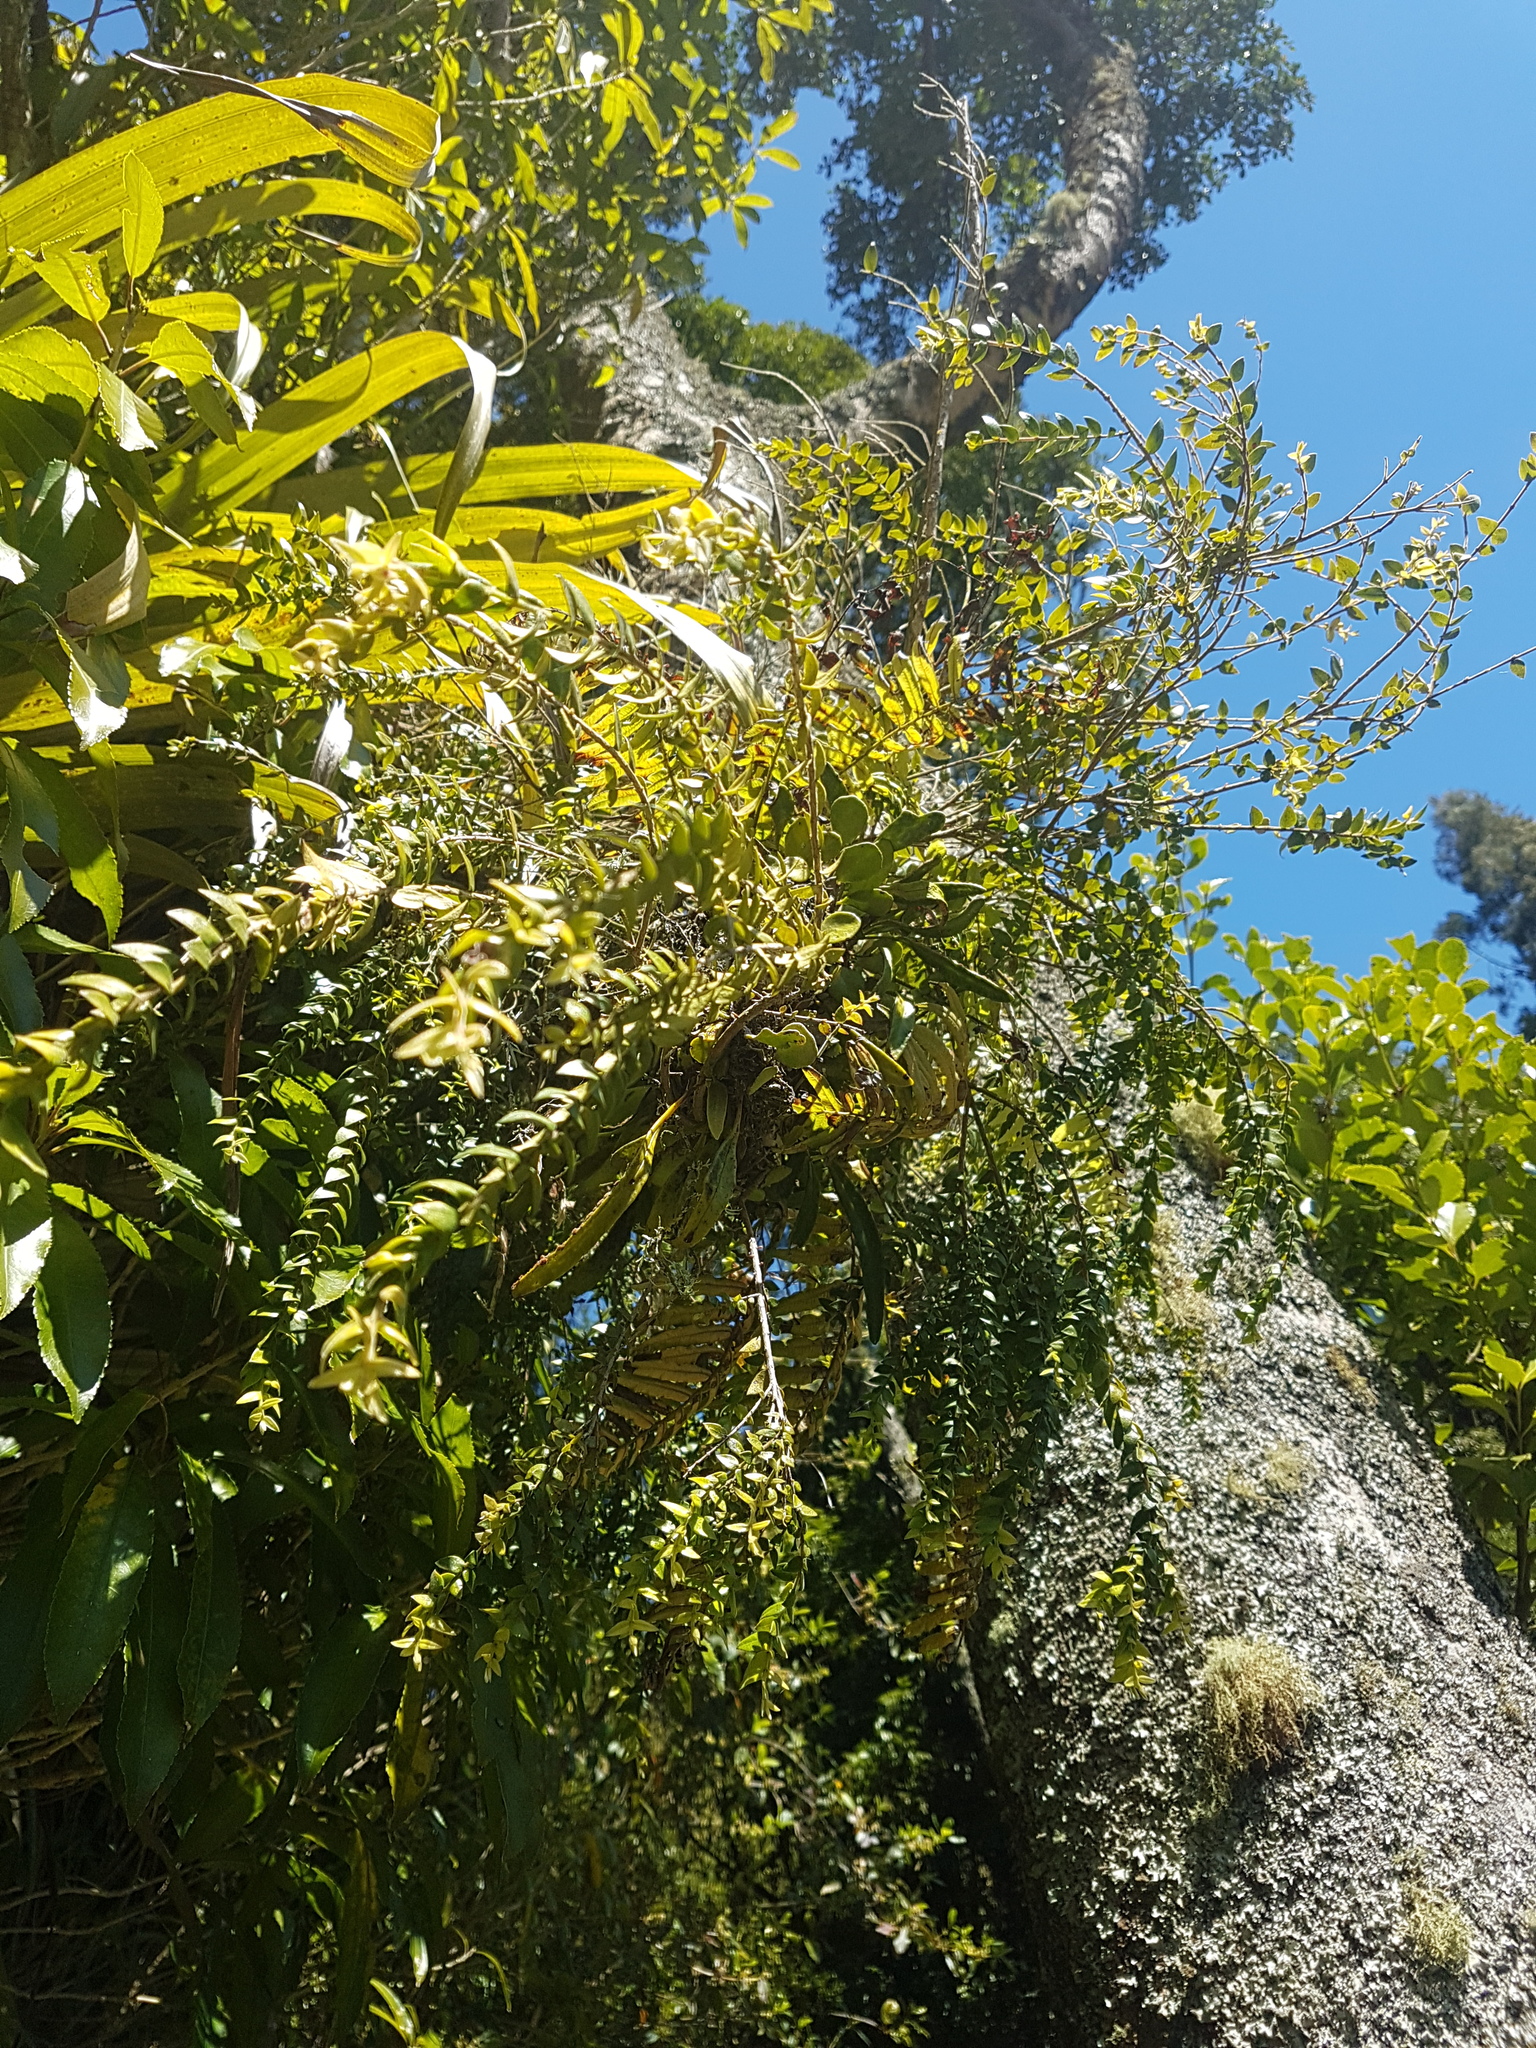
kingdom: Plantae
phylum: Tracheophyta
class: Magnoliopsida
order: Myrtales
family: Myrtaceae
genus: Metrosideros
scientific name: Metrosideros colensoi
